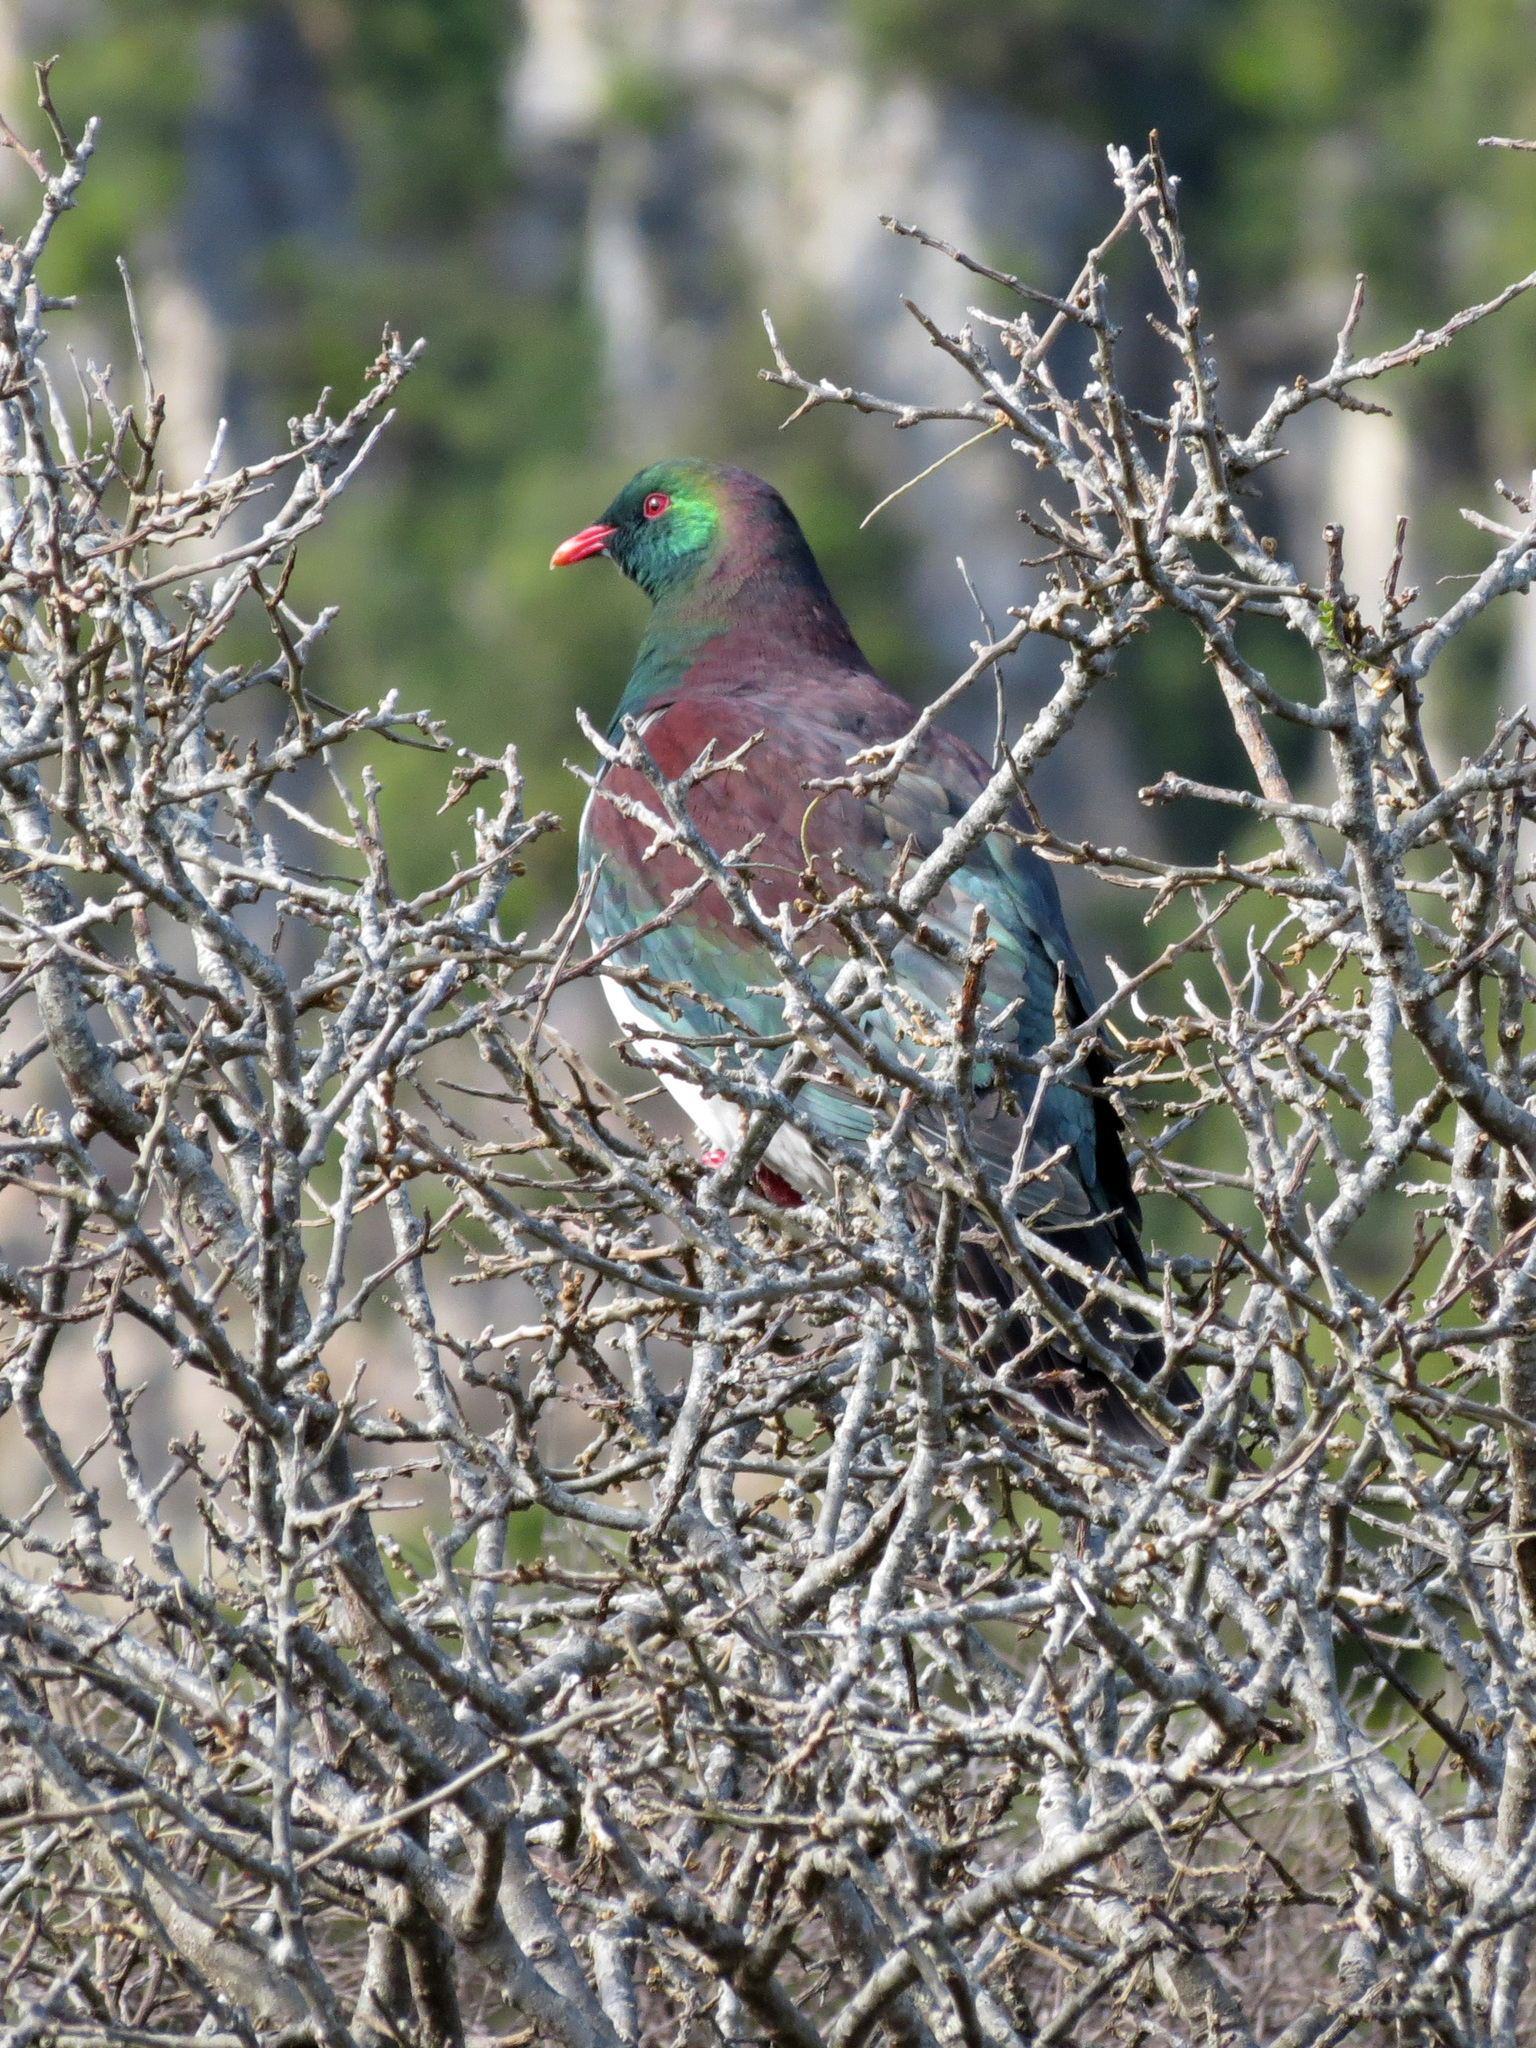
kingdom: Animalia
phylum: Chordata
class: Aves
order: Columbiformes
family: Columbidae
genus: Hemiphaga
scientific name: Hemiphaga novaeseelandiae
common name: New zealand pigeon
